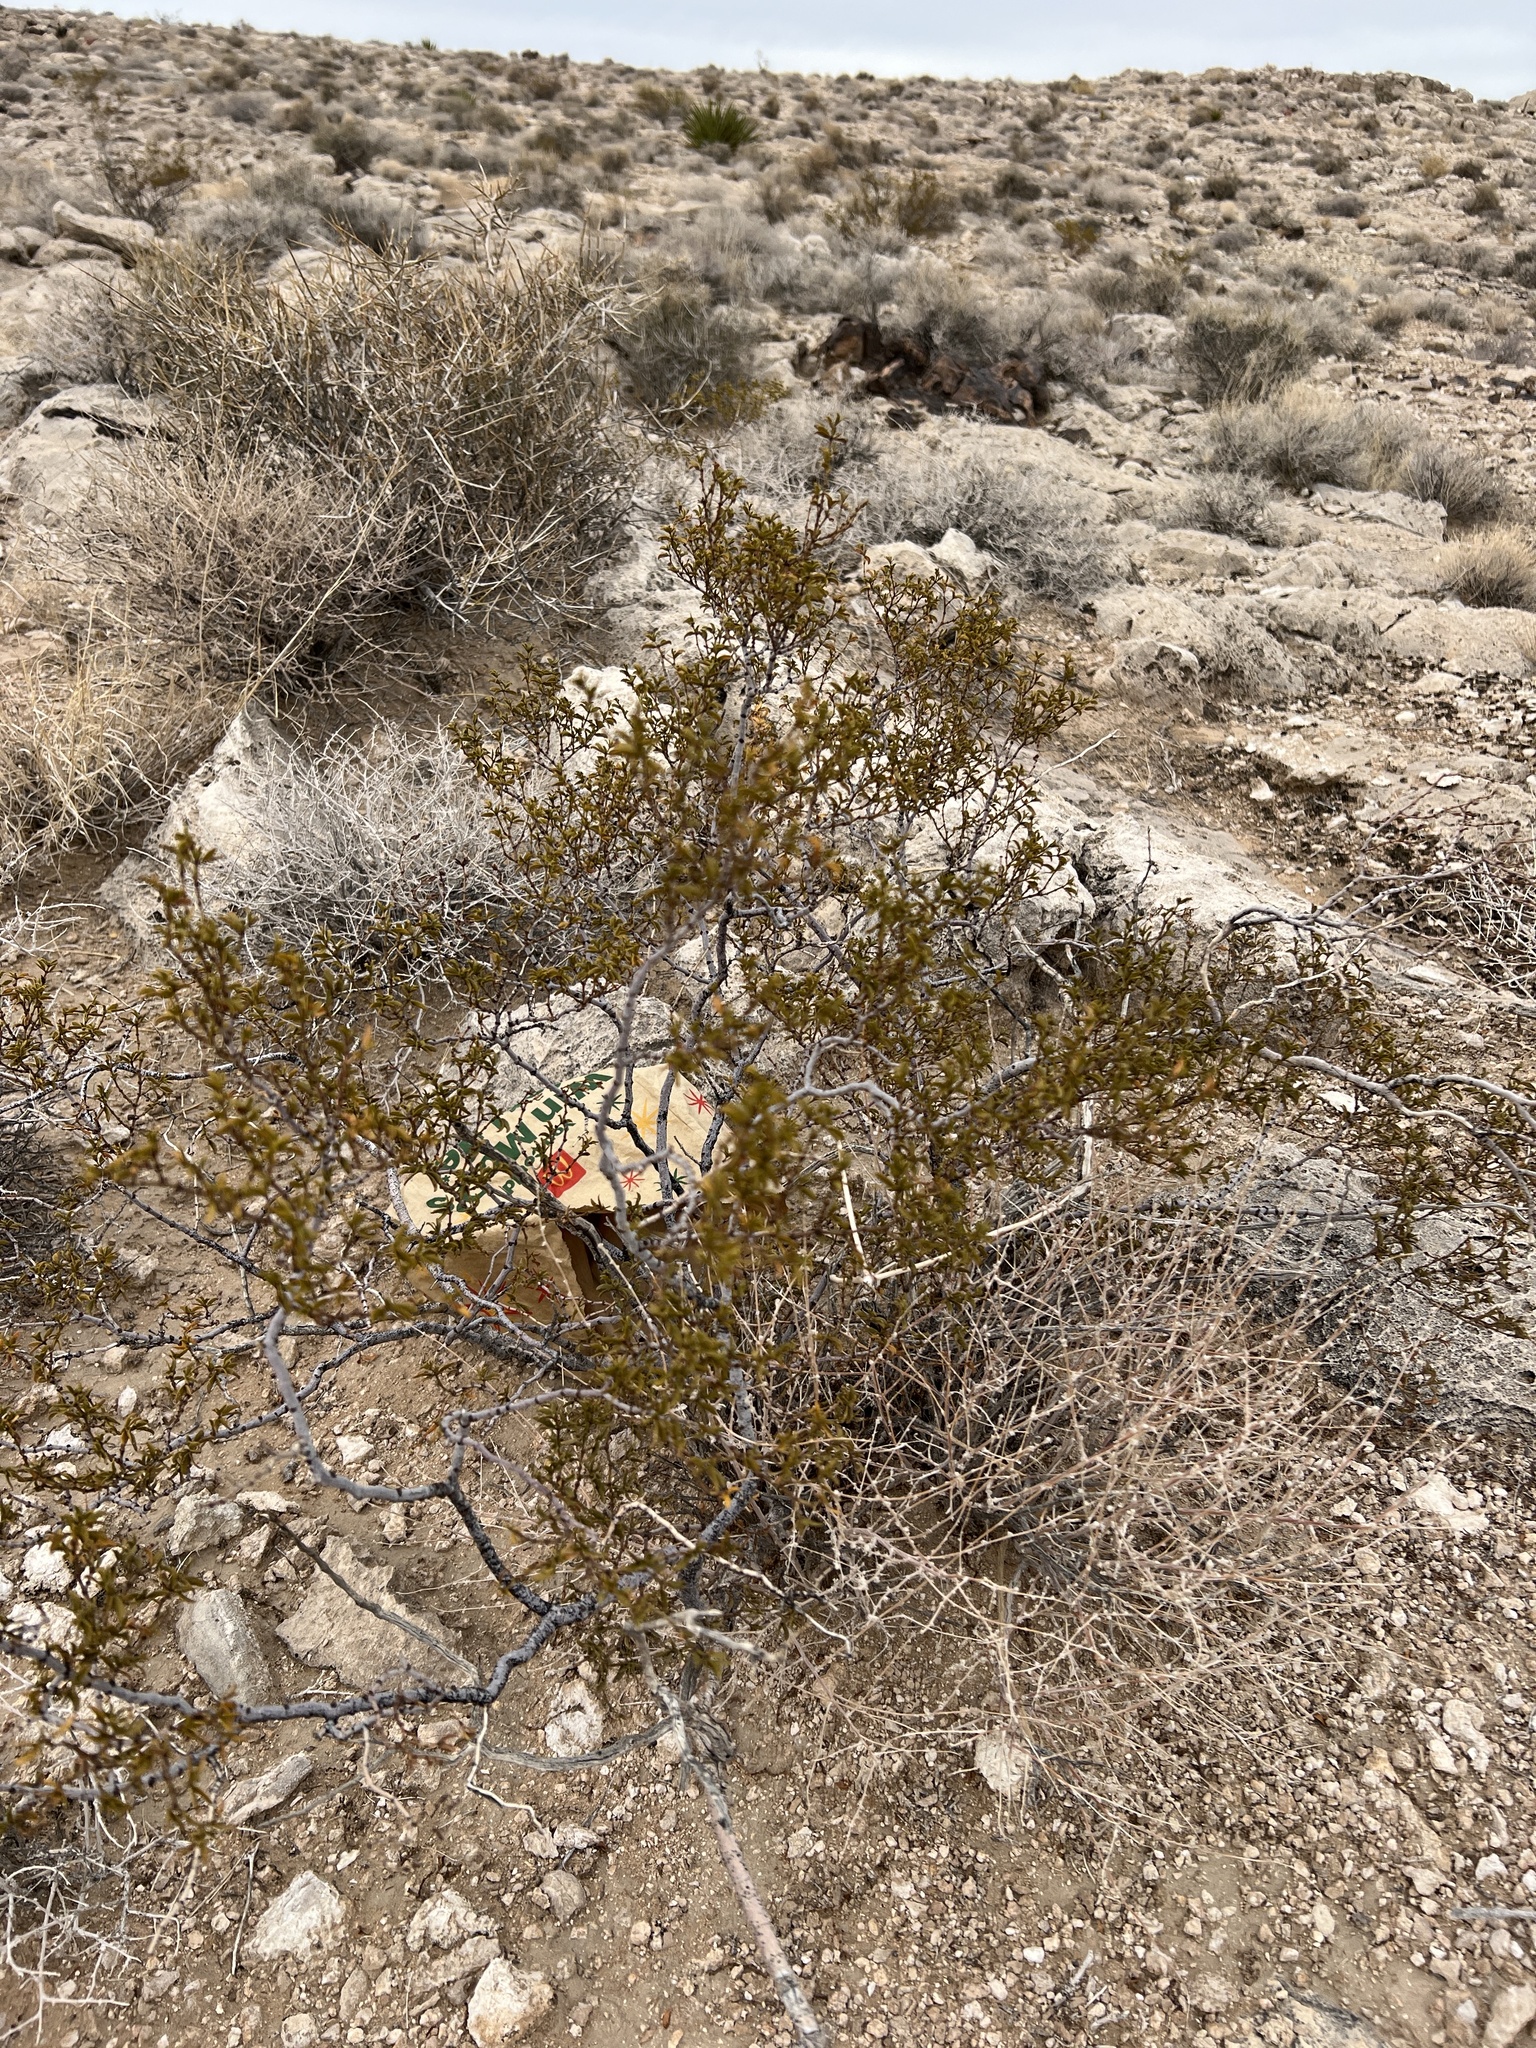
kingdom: Plantae
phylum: Tracheophyta
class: Magnoliopsida
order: Zygophyllales
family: Zygophyllaceae
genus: Larrea
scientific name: Larrea tridentata
